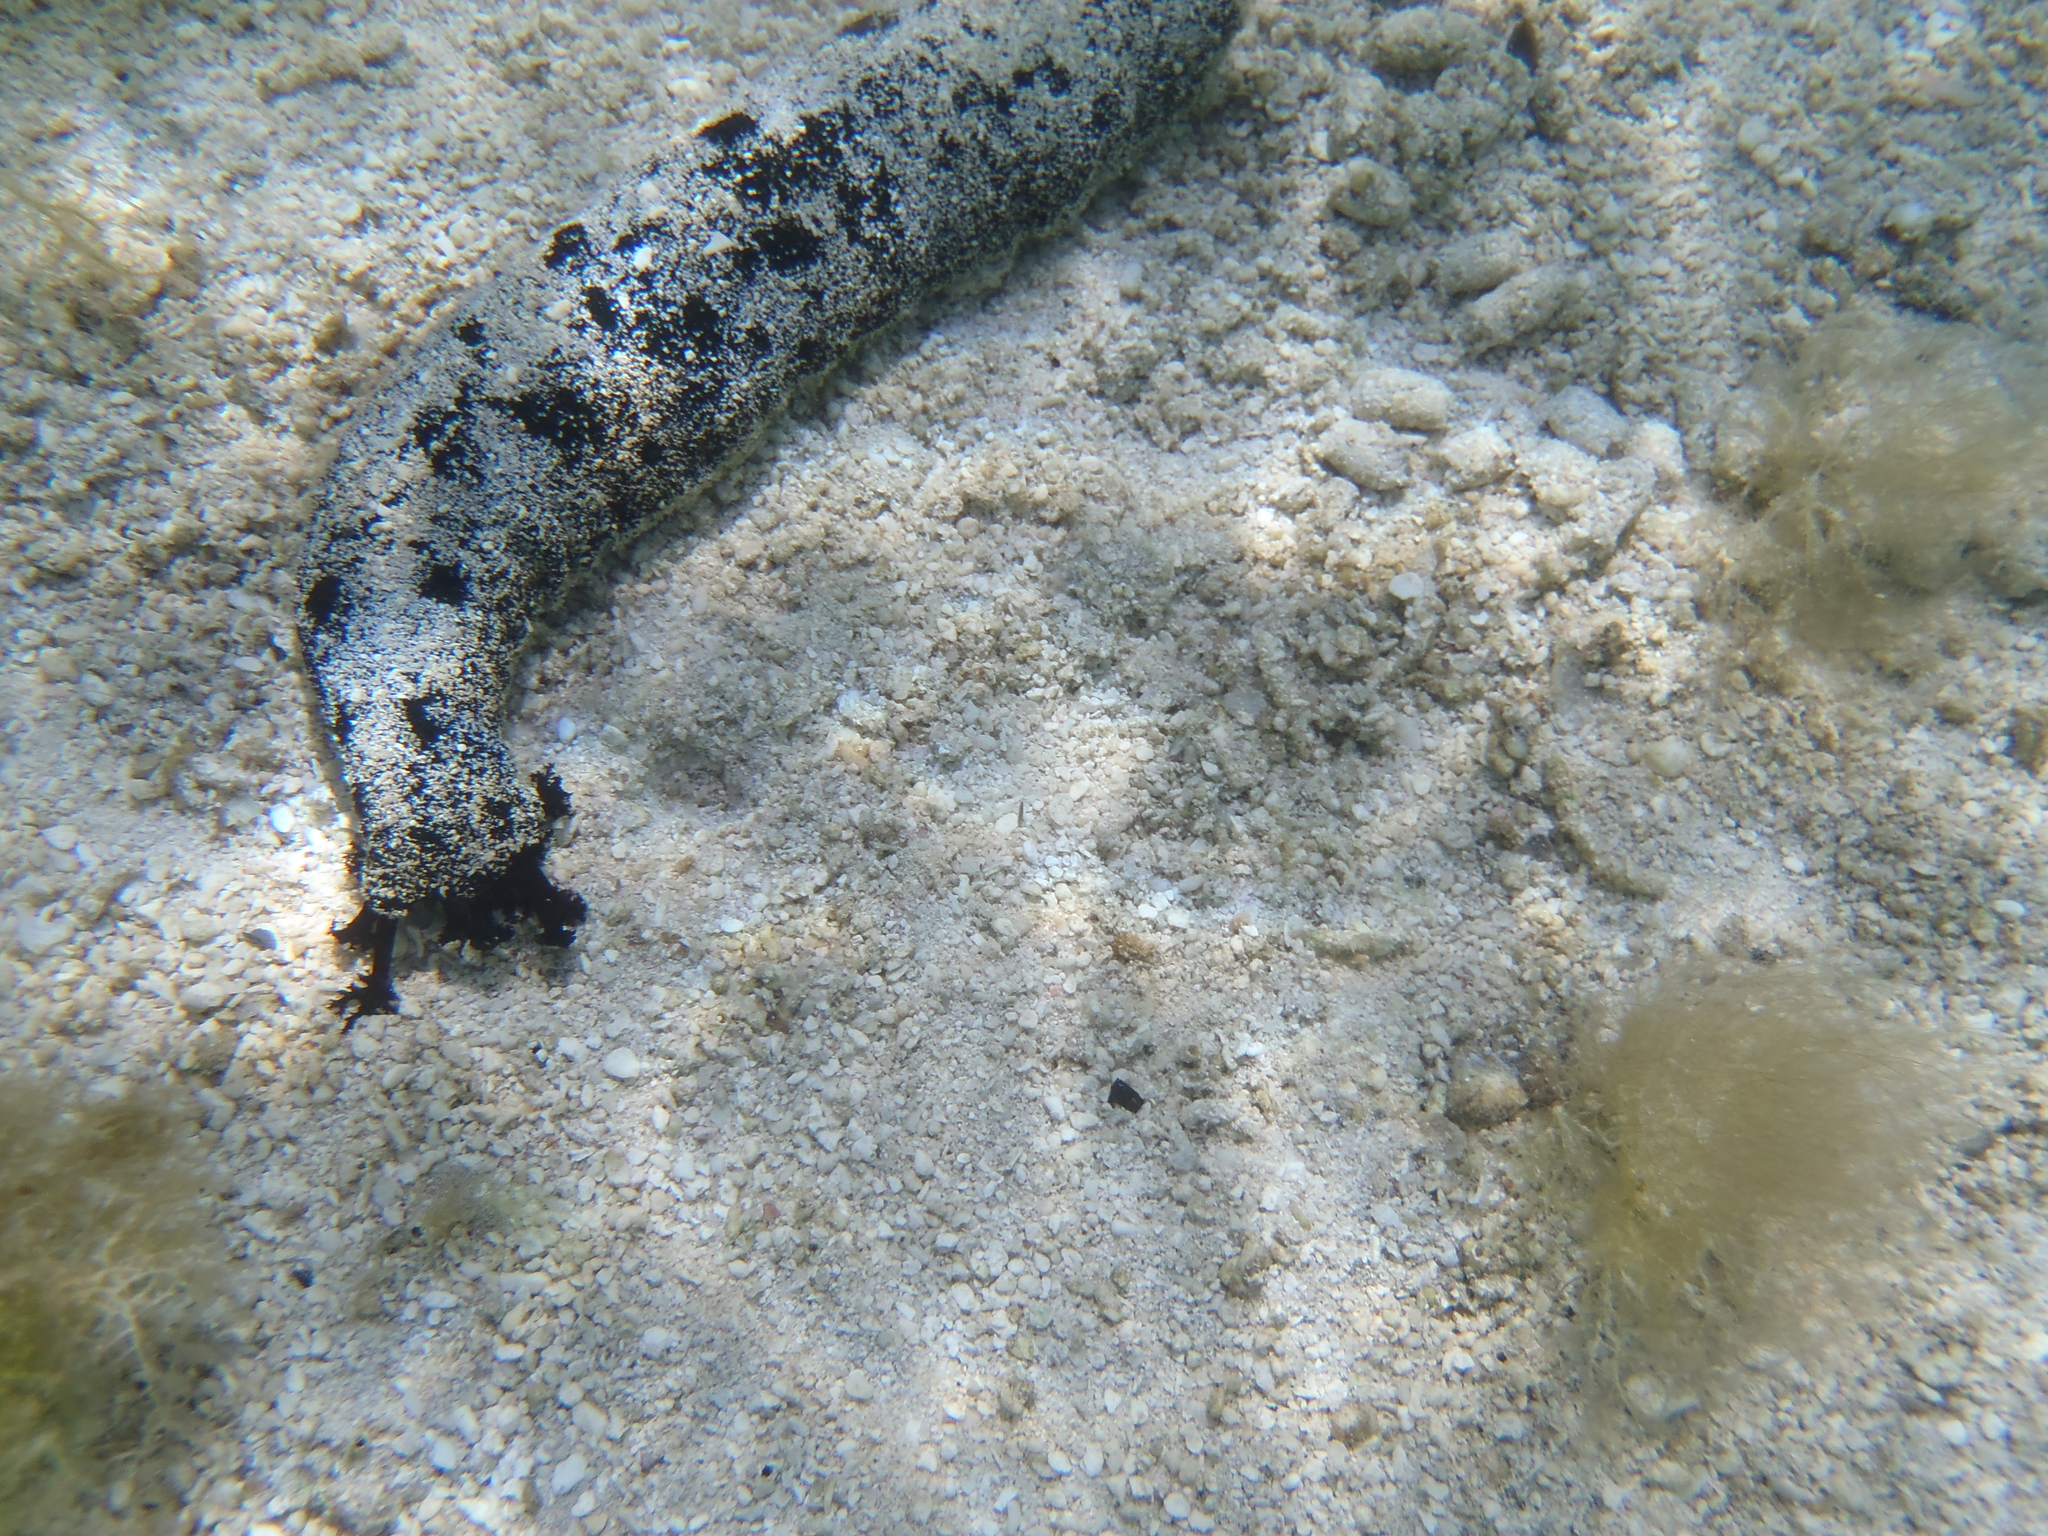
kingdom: Animalia
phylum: Echinodermata
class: Holothuroidea
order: Holothuriida
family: Holothuriidae
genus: Holothuria
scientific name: Holothuria atra
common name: Lollyfish
